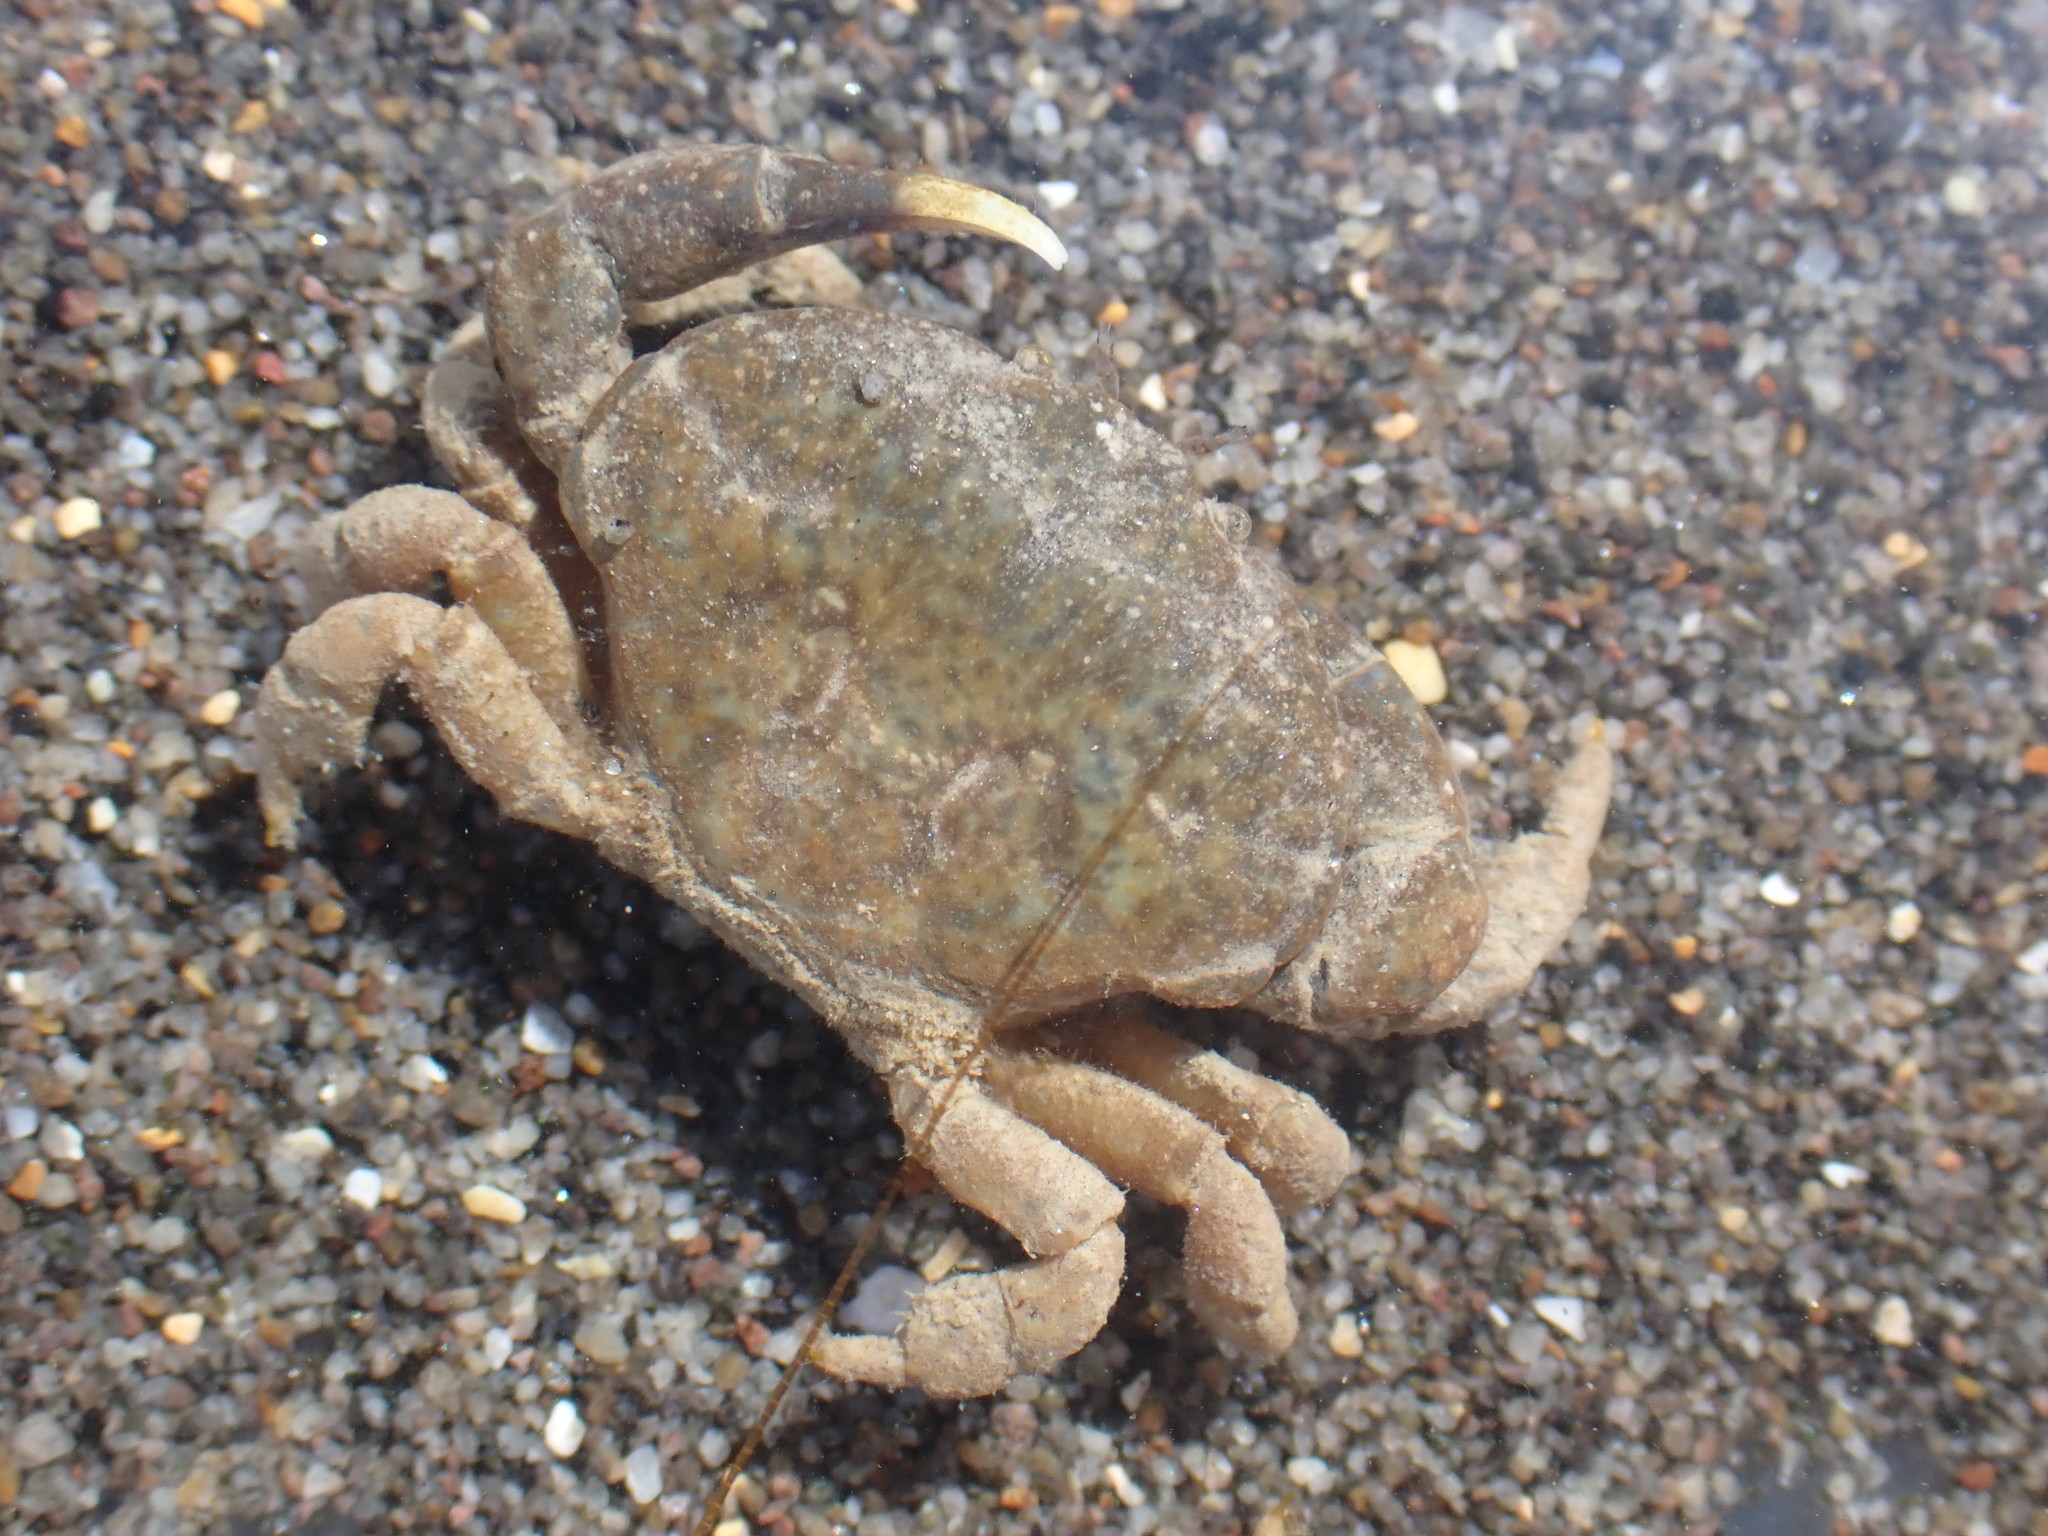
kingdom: Animalia
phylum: Arthropoda
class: Malacostraca
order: Decapoda
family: Heteroziidae
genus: Heterozius
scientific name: Heterozius rotundifrons
